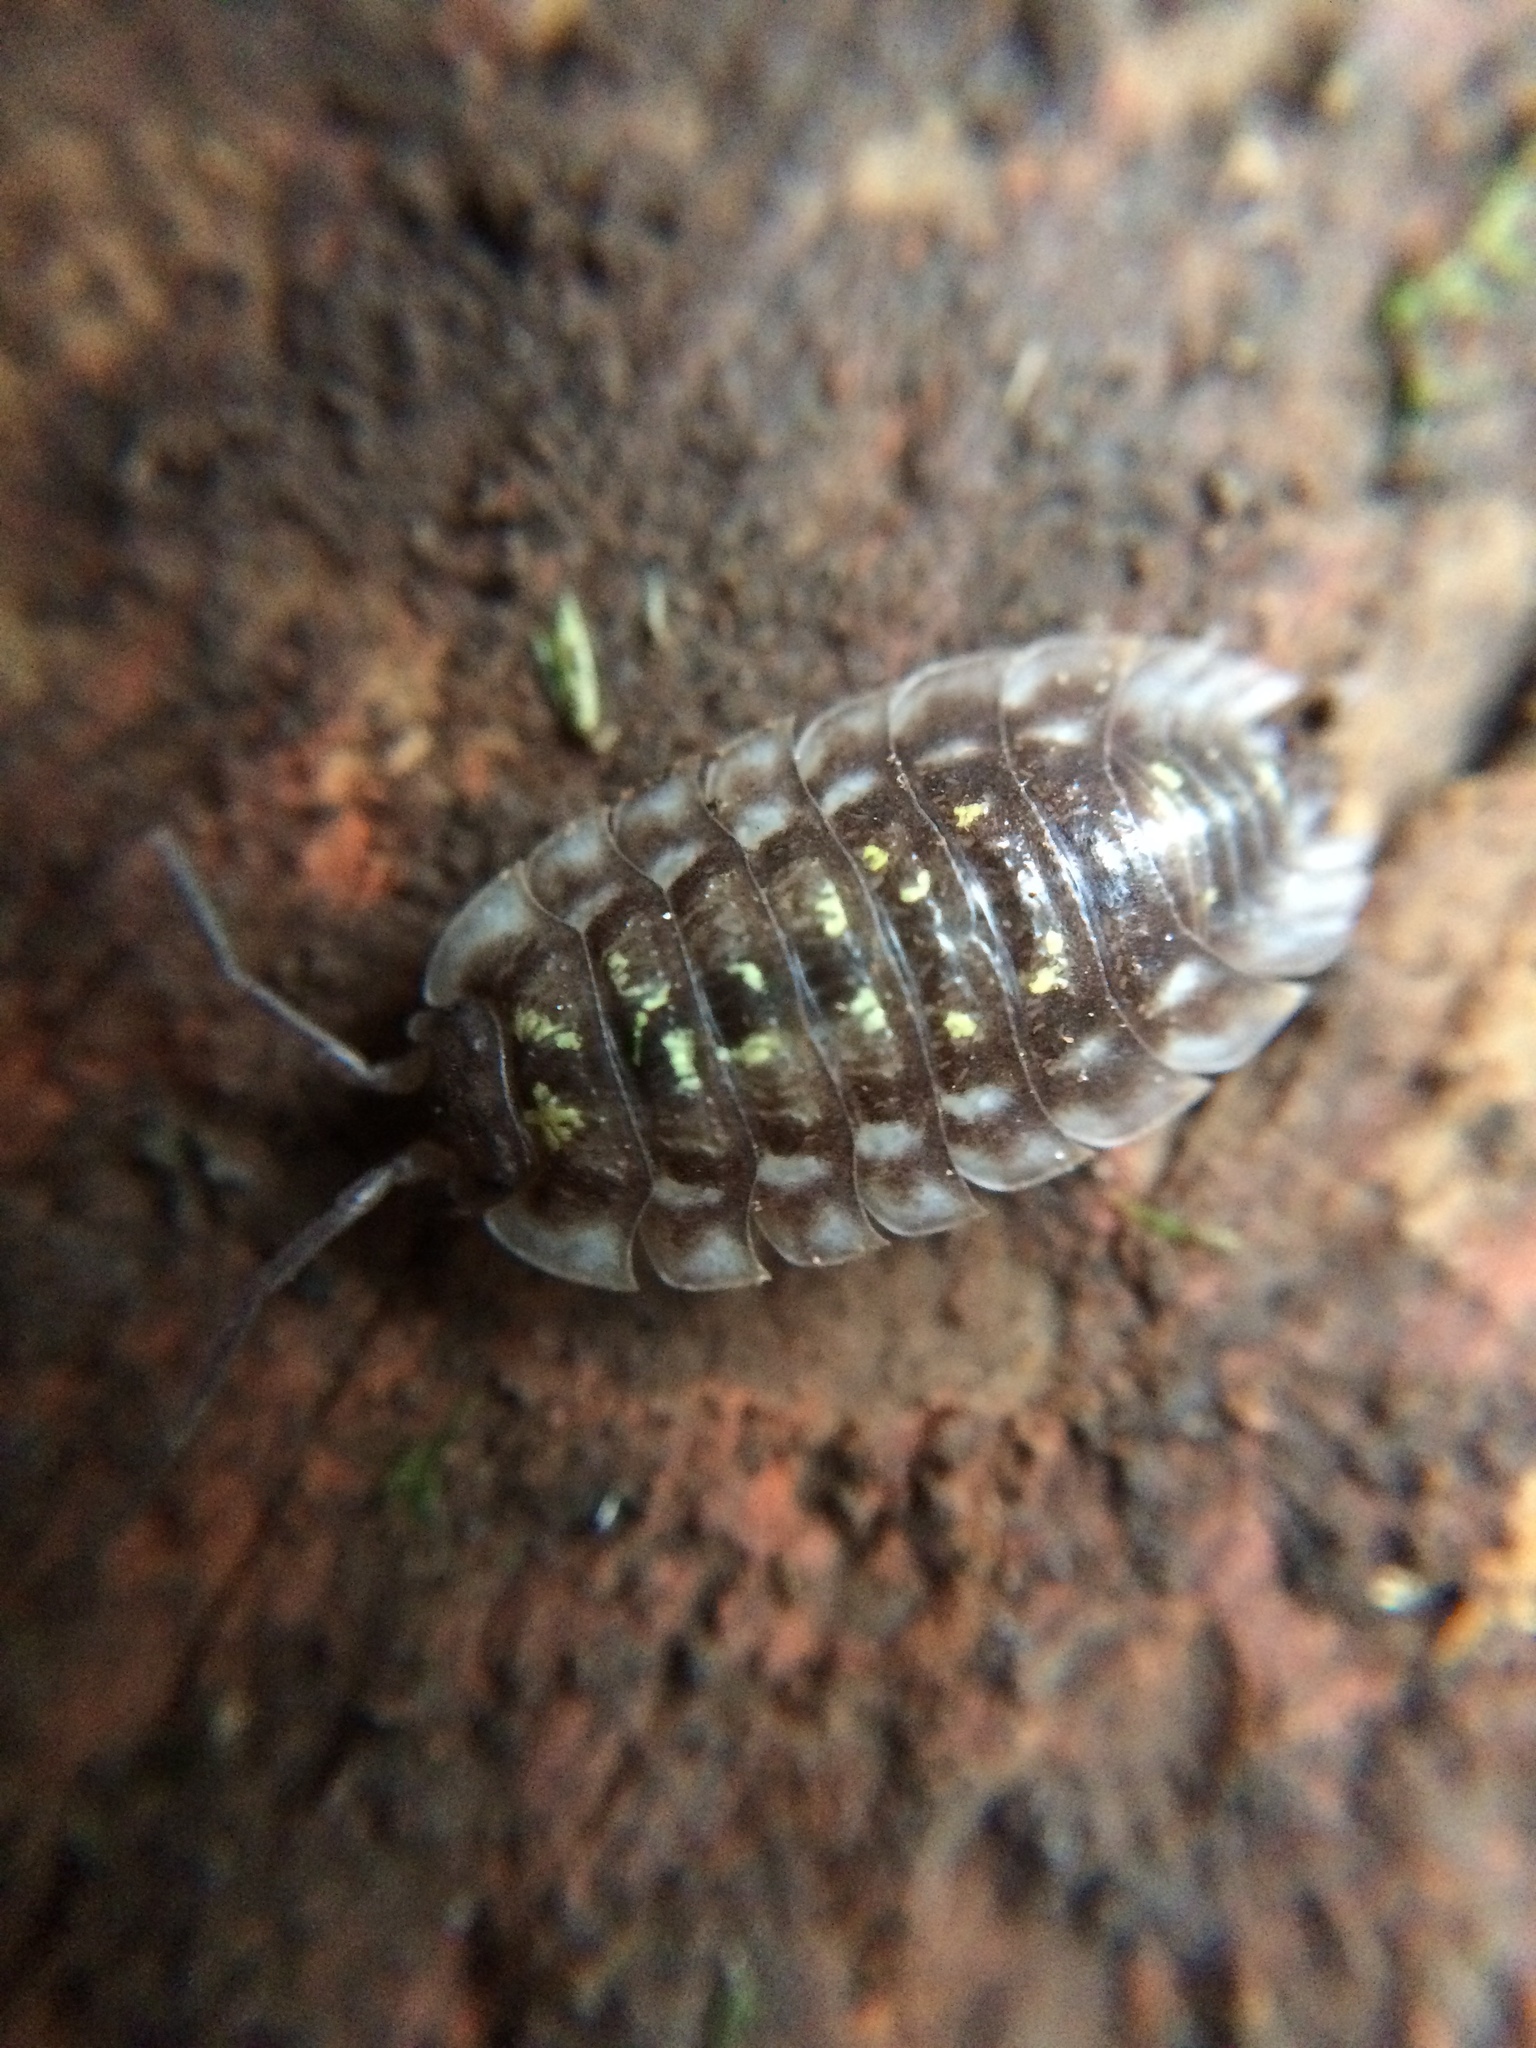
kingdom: Animalia
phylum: Arthropoda
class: Malacostraca
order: Isopoda
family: Oniscidae
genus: Oniscus
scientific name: Oniscus asellus
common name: Common shiny woodlouse
